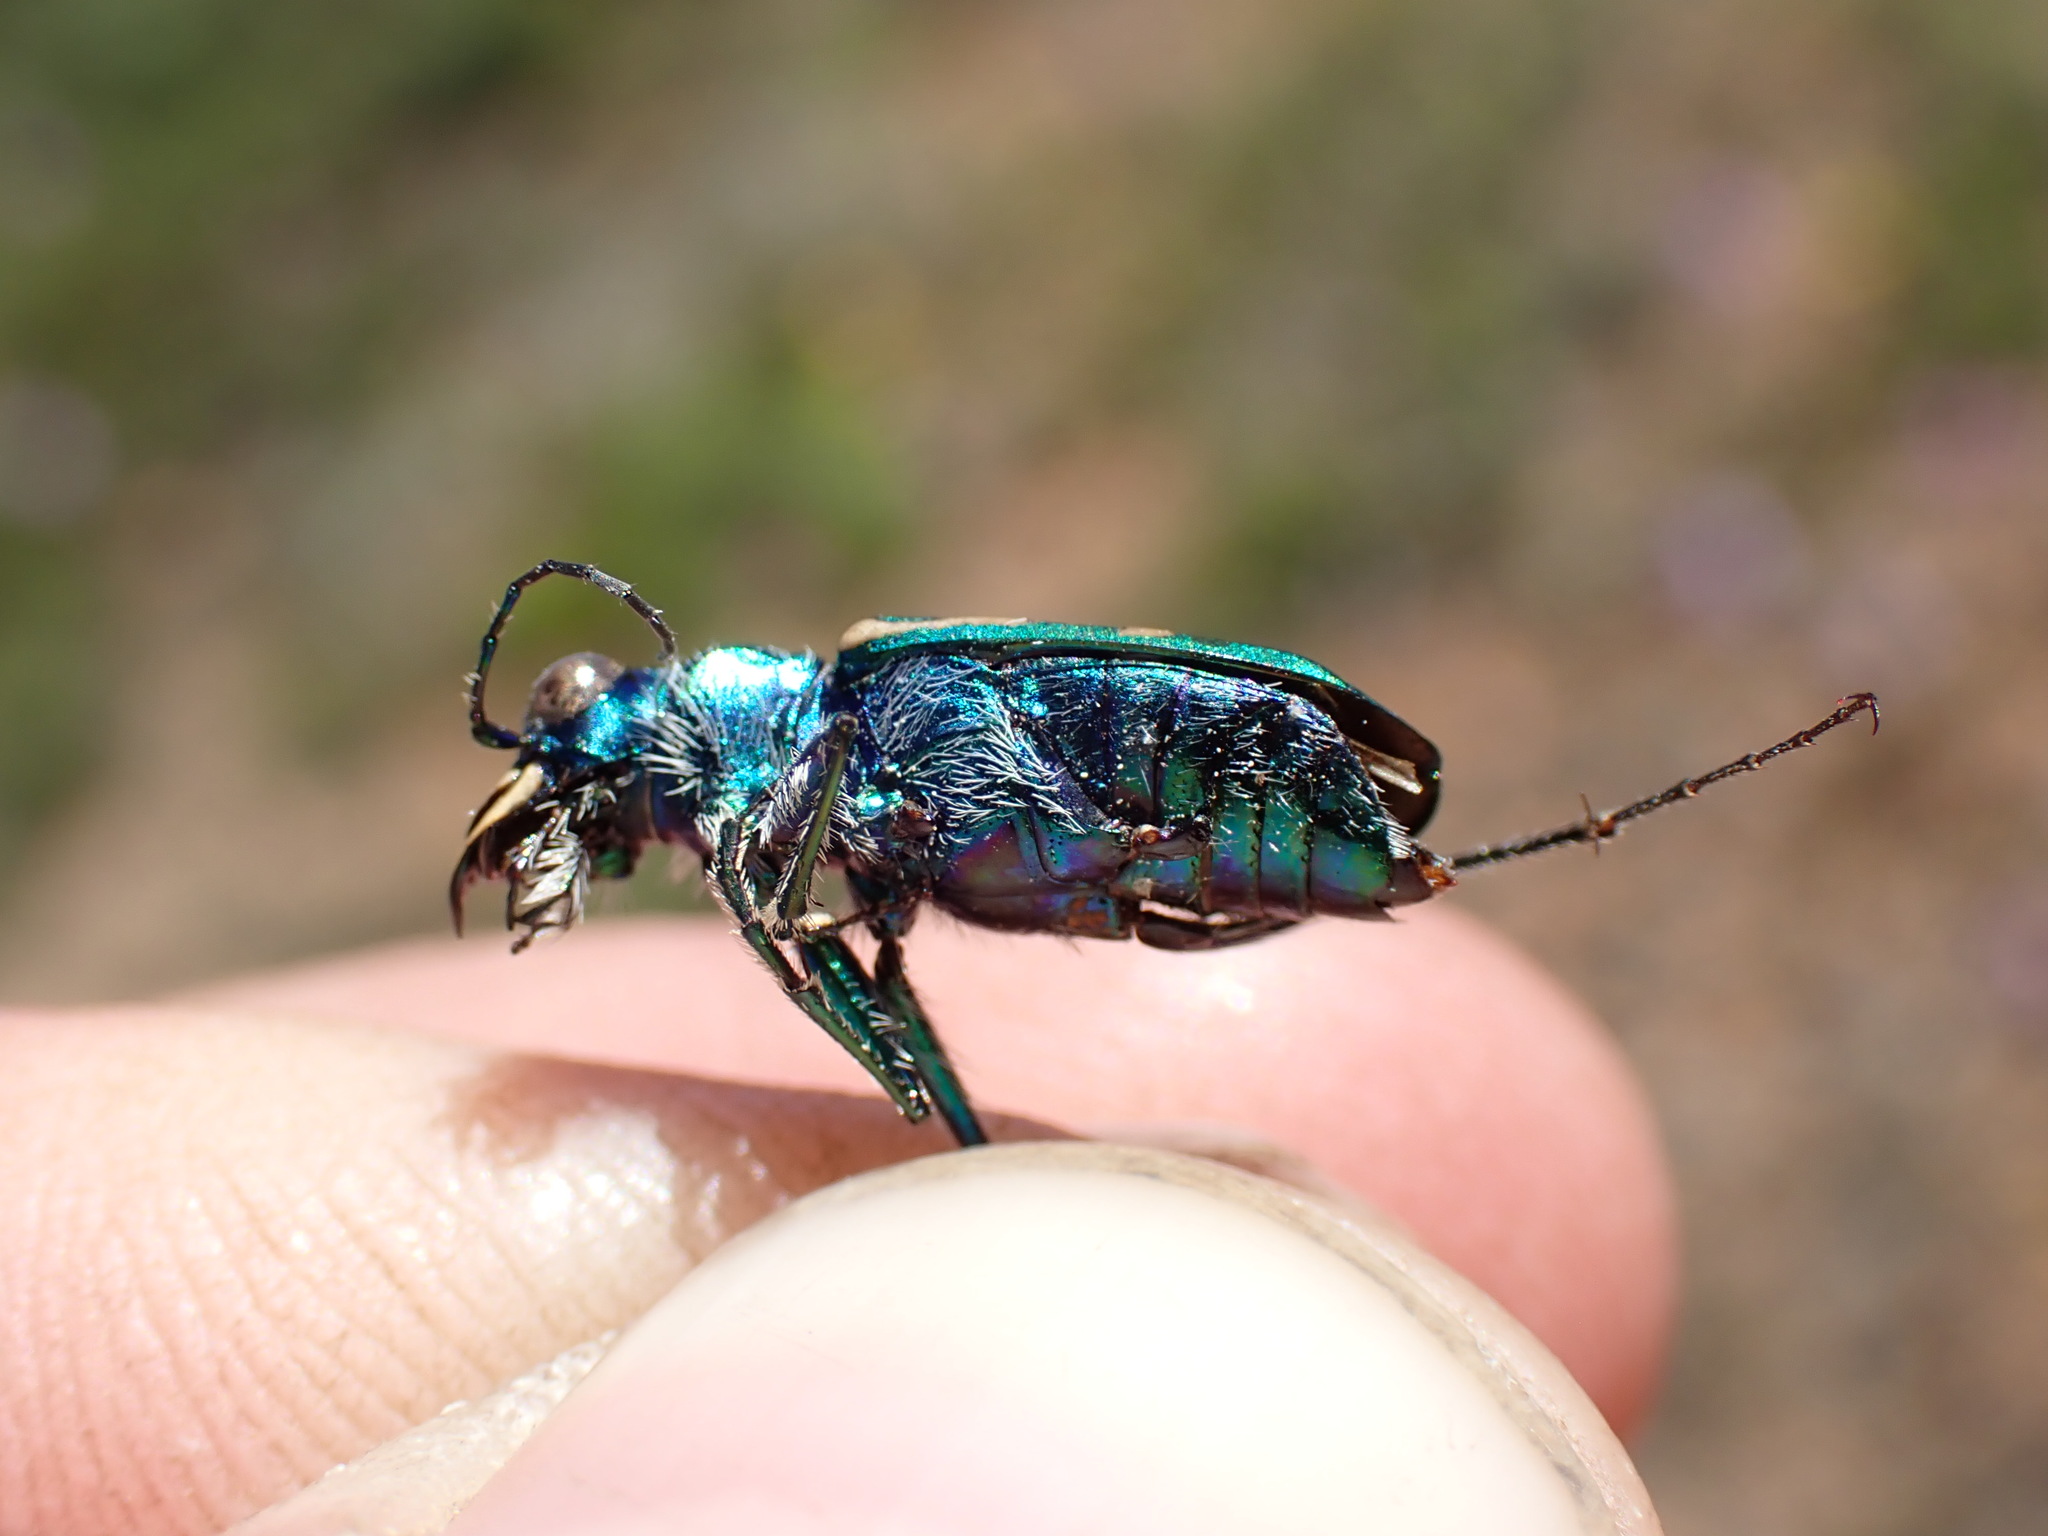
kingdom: Animalia
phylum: Arthropoda
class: Insecta
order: Coleoptera
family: Carabidae
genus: Cicindela
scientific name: Cicindela longilabris
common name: Boreal long-lipped tiger beetle
